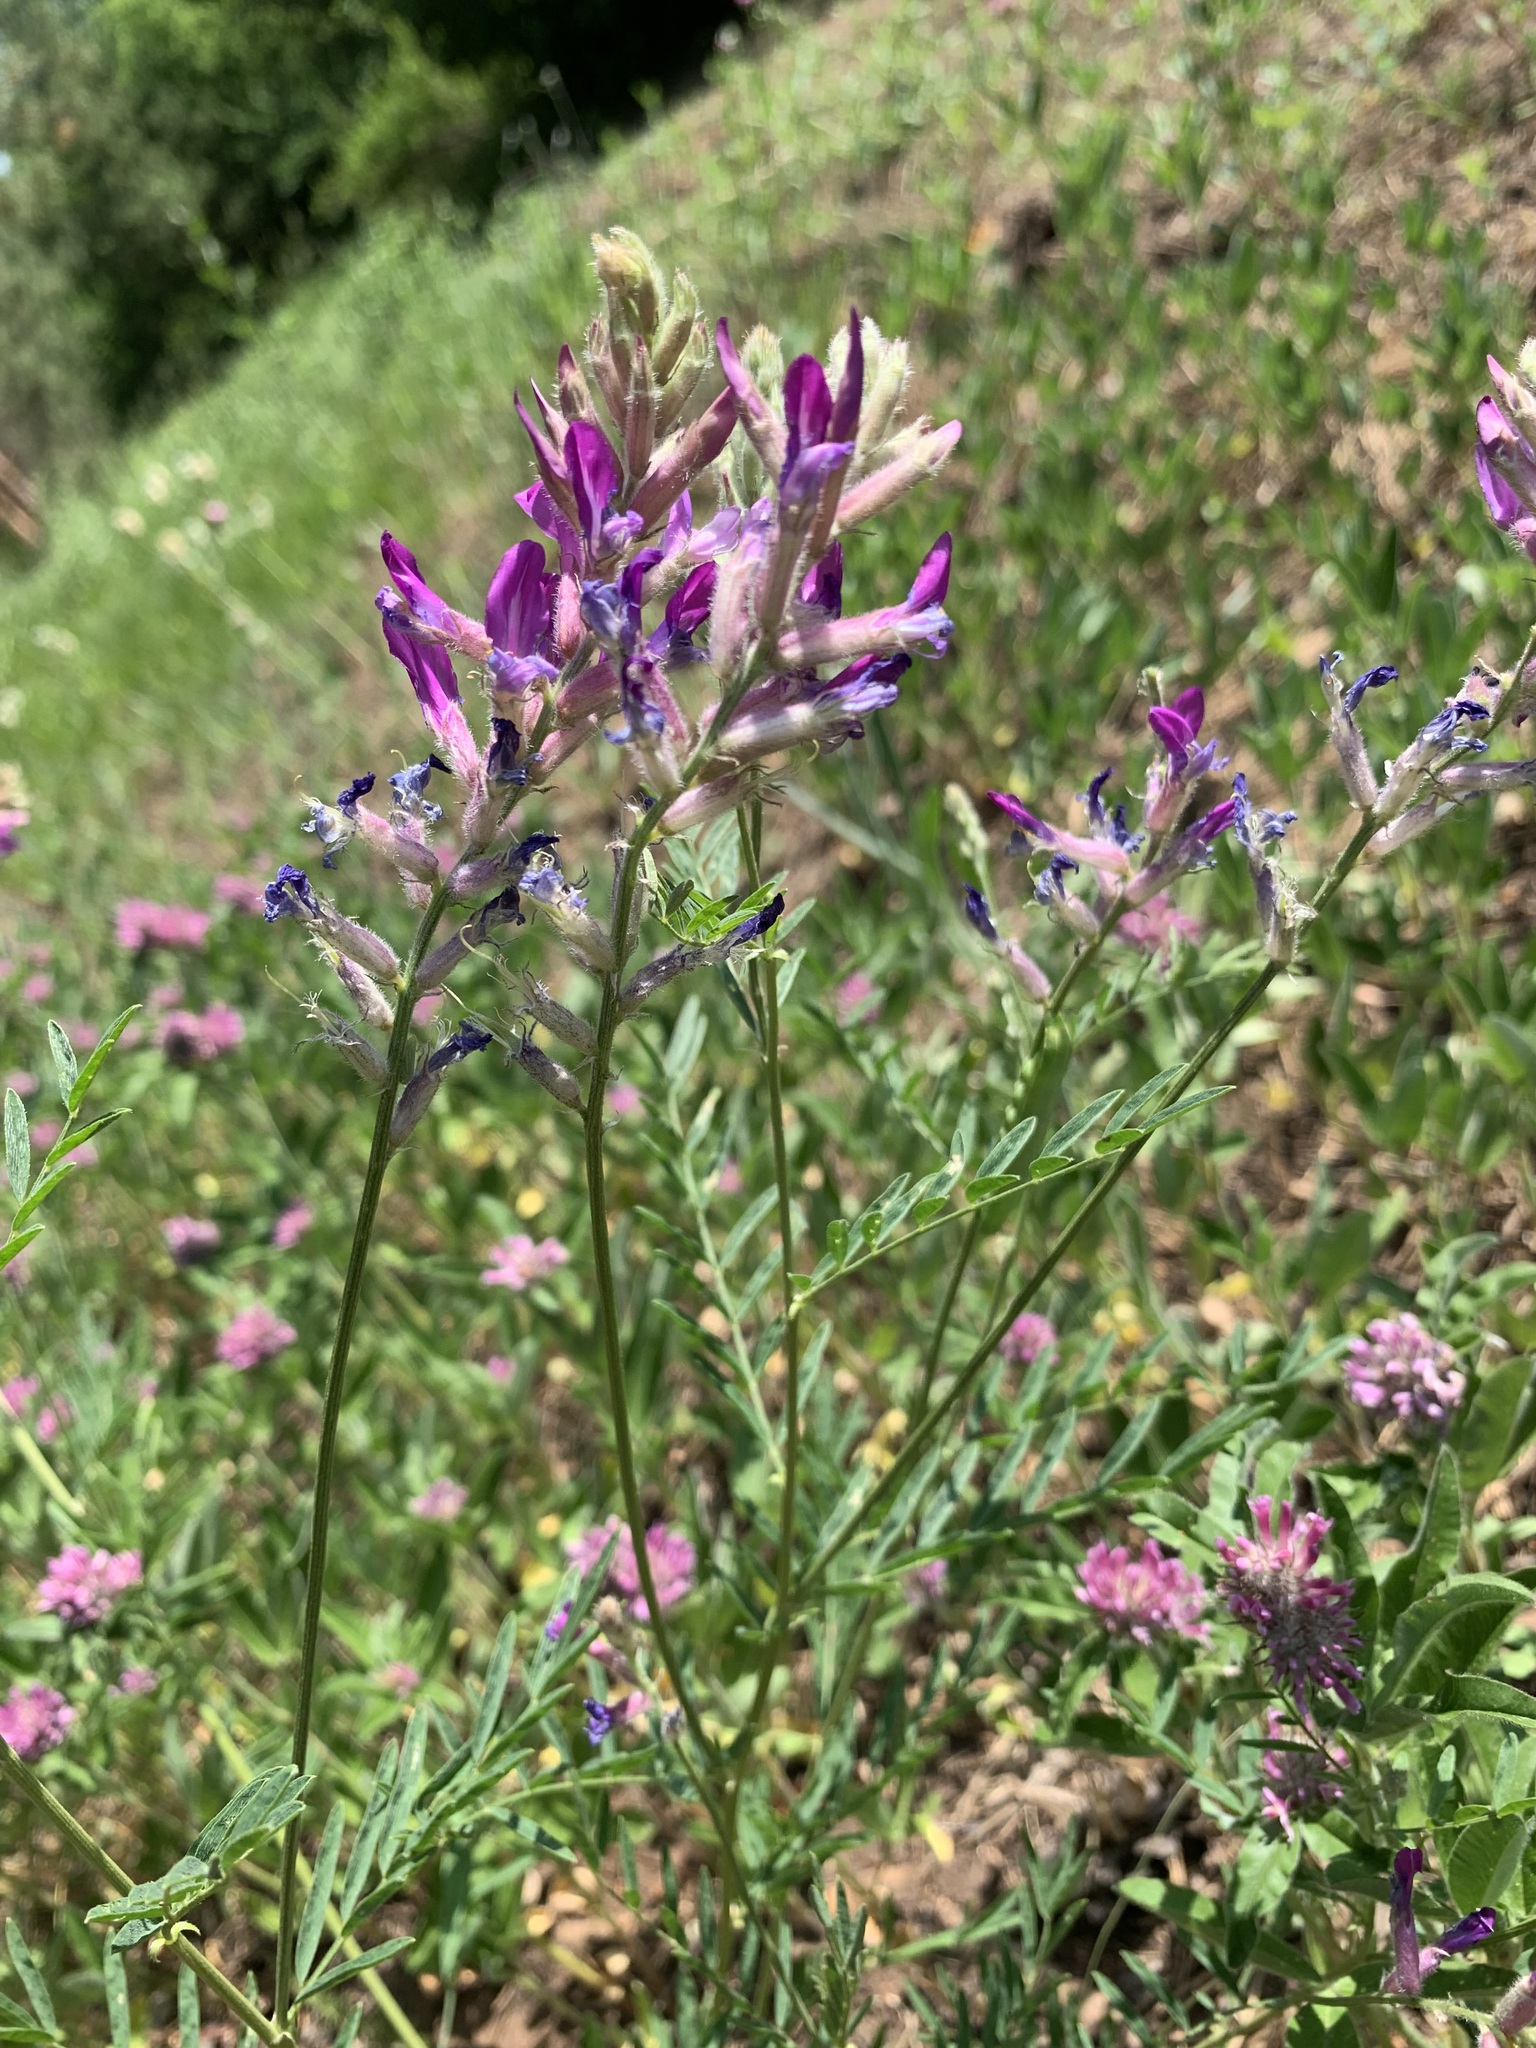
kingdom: Plantae
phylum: Tracheophyta
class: Magnoliopsida
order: Fabales
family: Fabaceae
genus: Astragalus
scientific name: Astragalus varius
